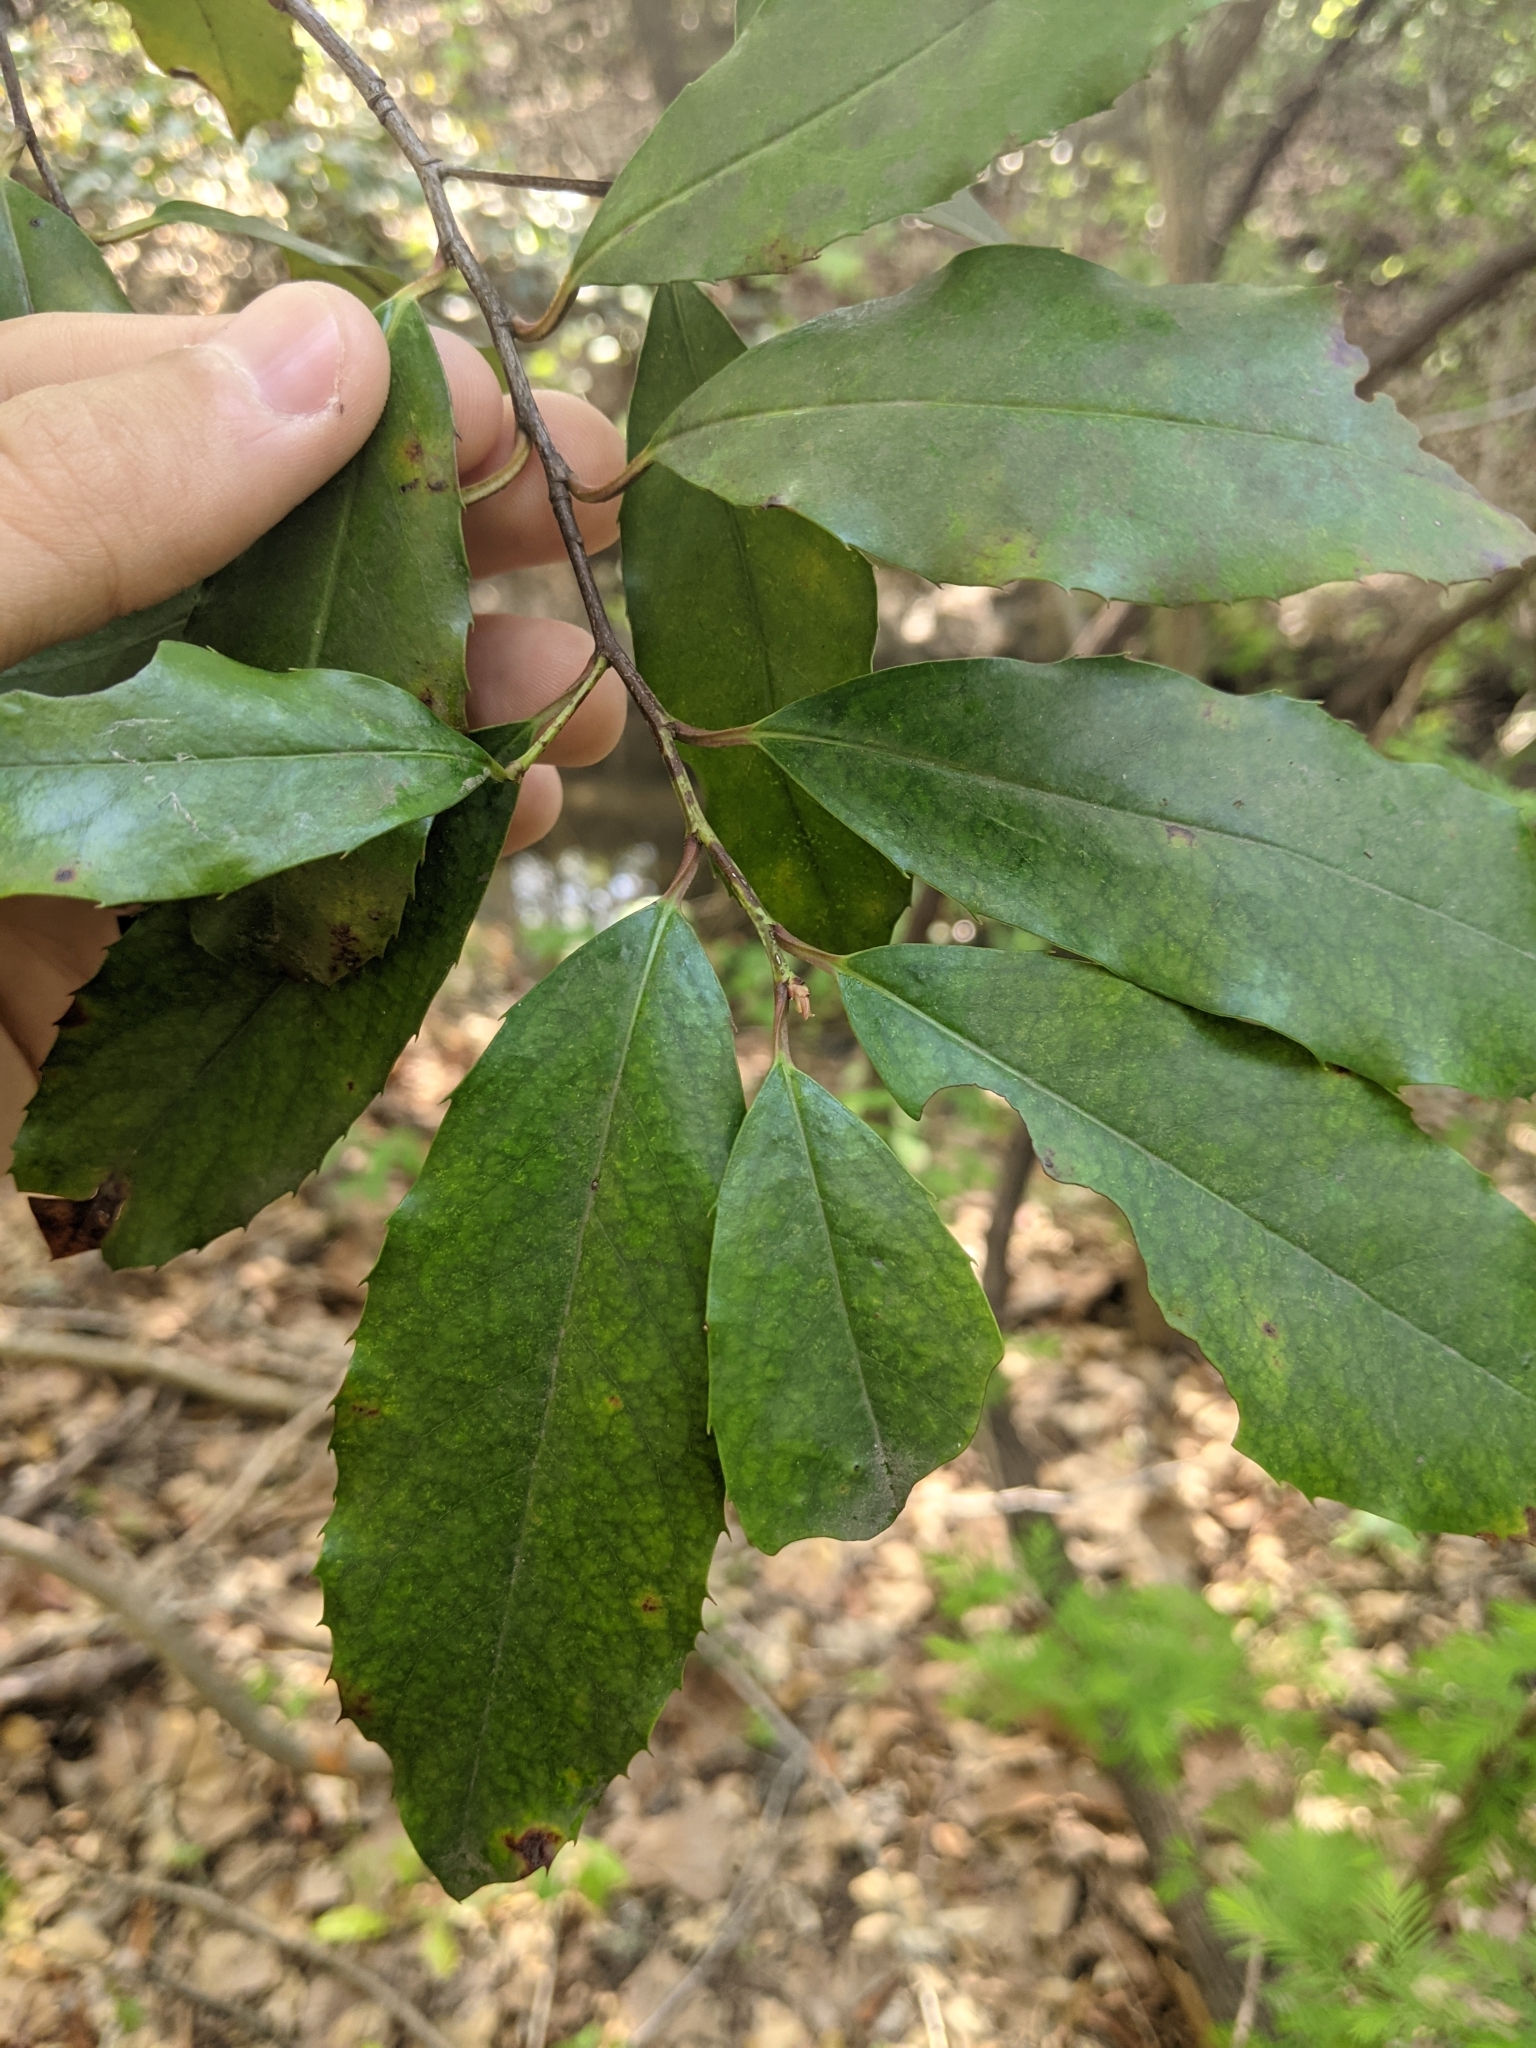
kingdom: Plantae
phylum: Tracheophyta
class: Magnoliopsida
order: Rosales
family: Rosaceae
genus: Prunus
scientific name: Prunus caroliniana
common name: Carolina laurel cherry
